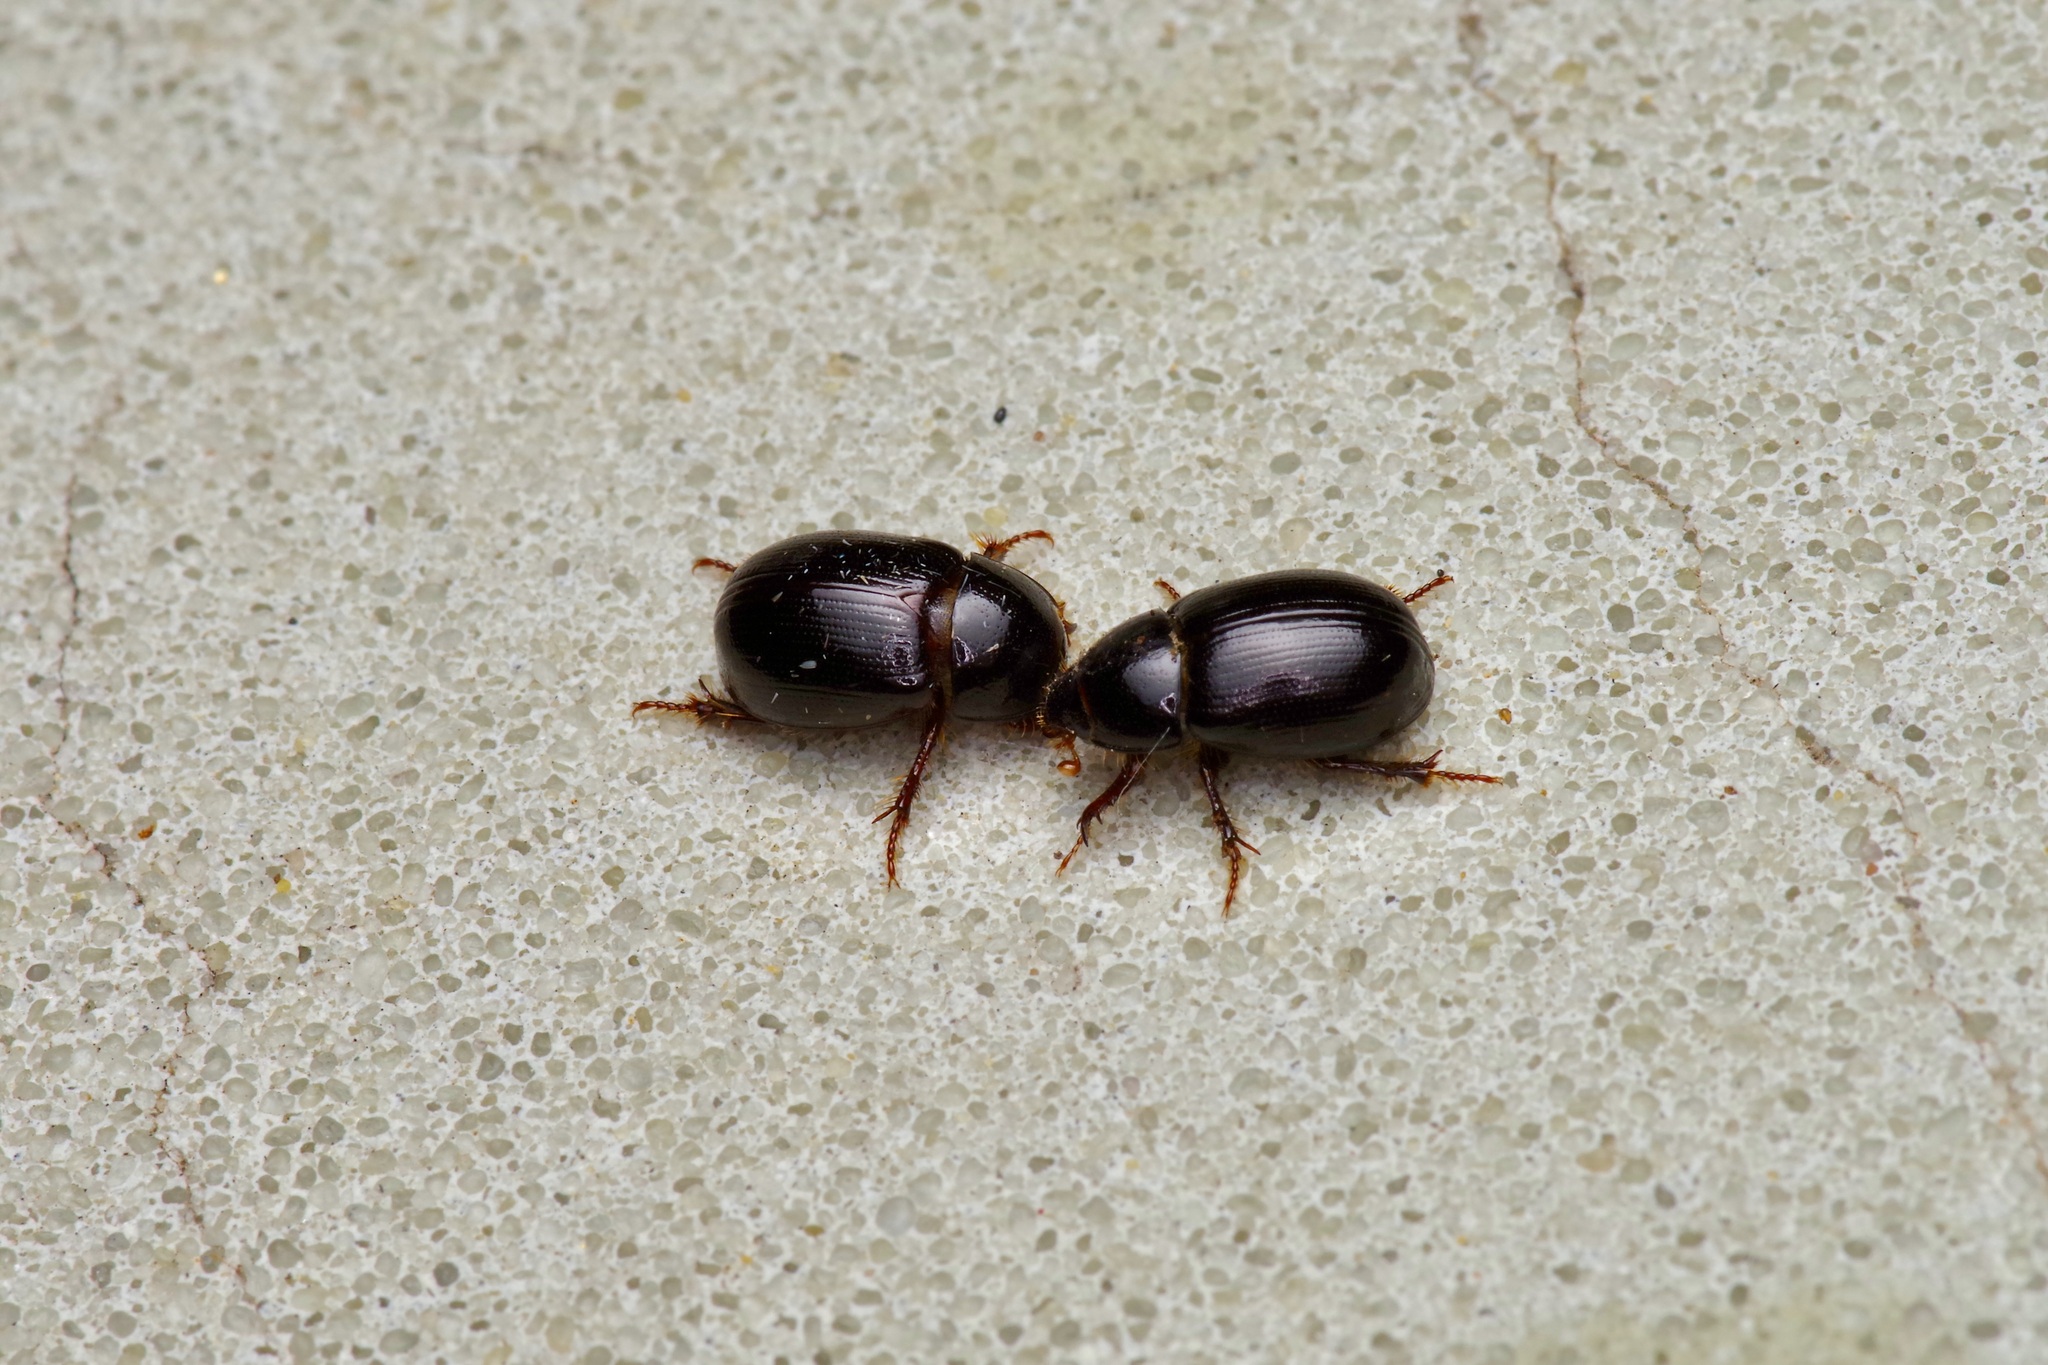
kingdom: Animalia
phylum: Arthropoda
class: Insecta
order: Coleoptera
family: Hybosoridae
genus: Hybosorus
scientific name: Hybosorus illigeri
